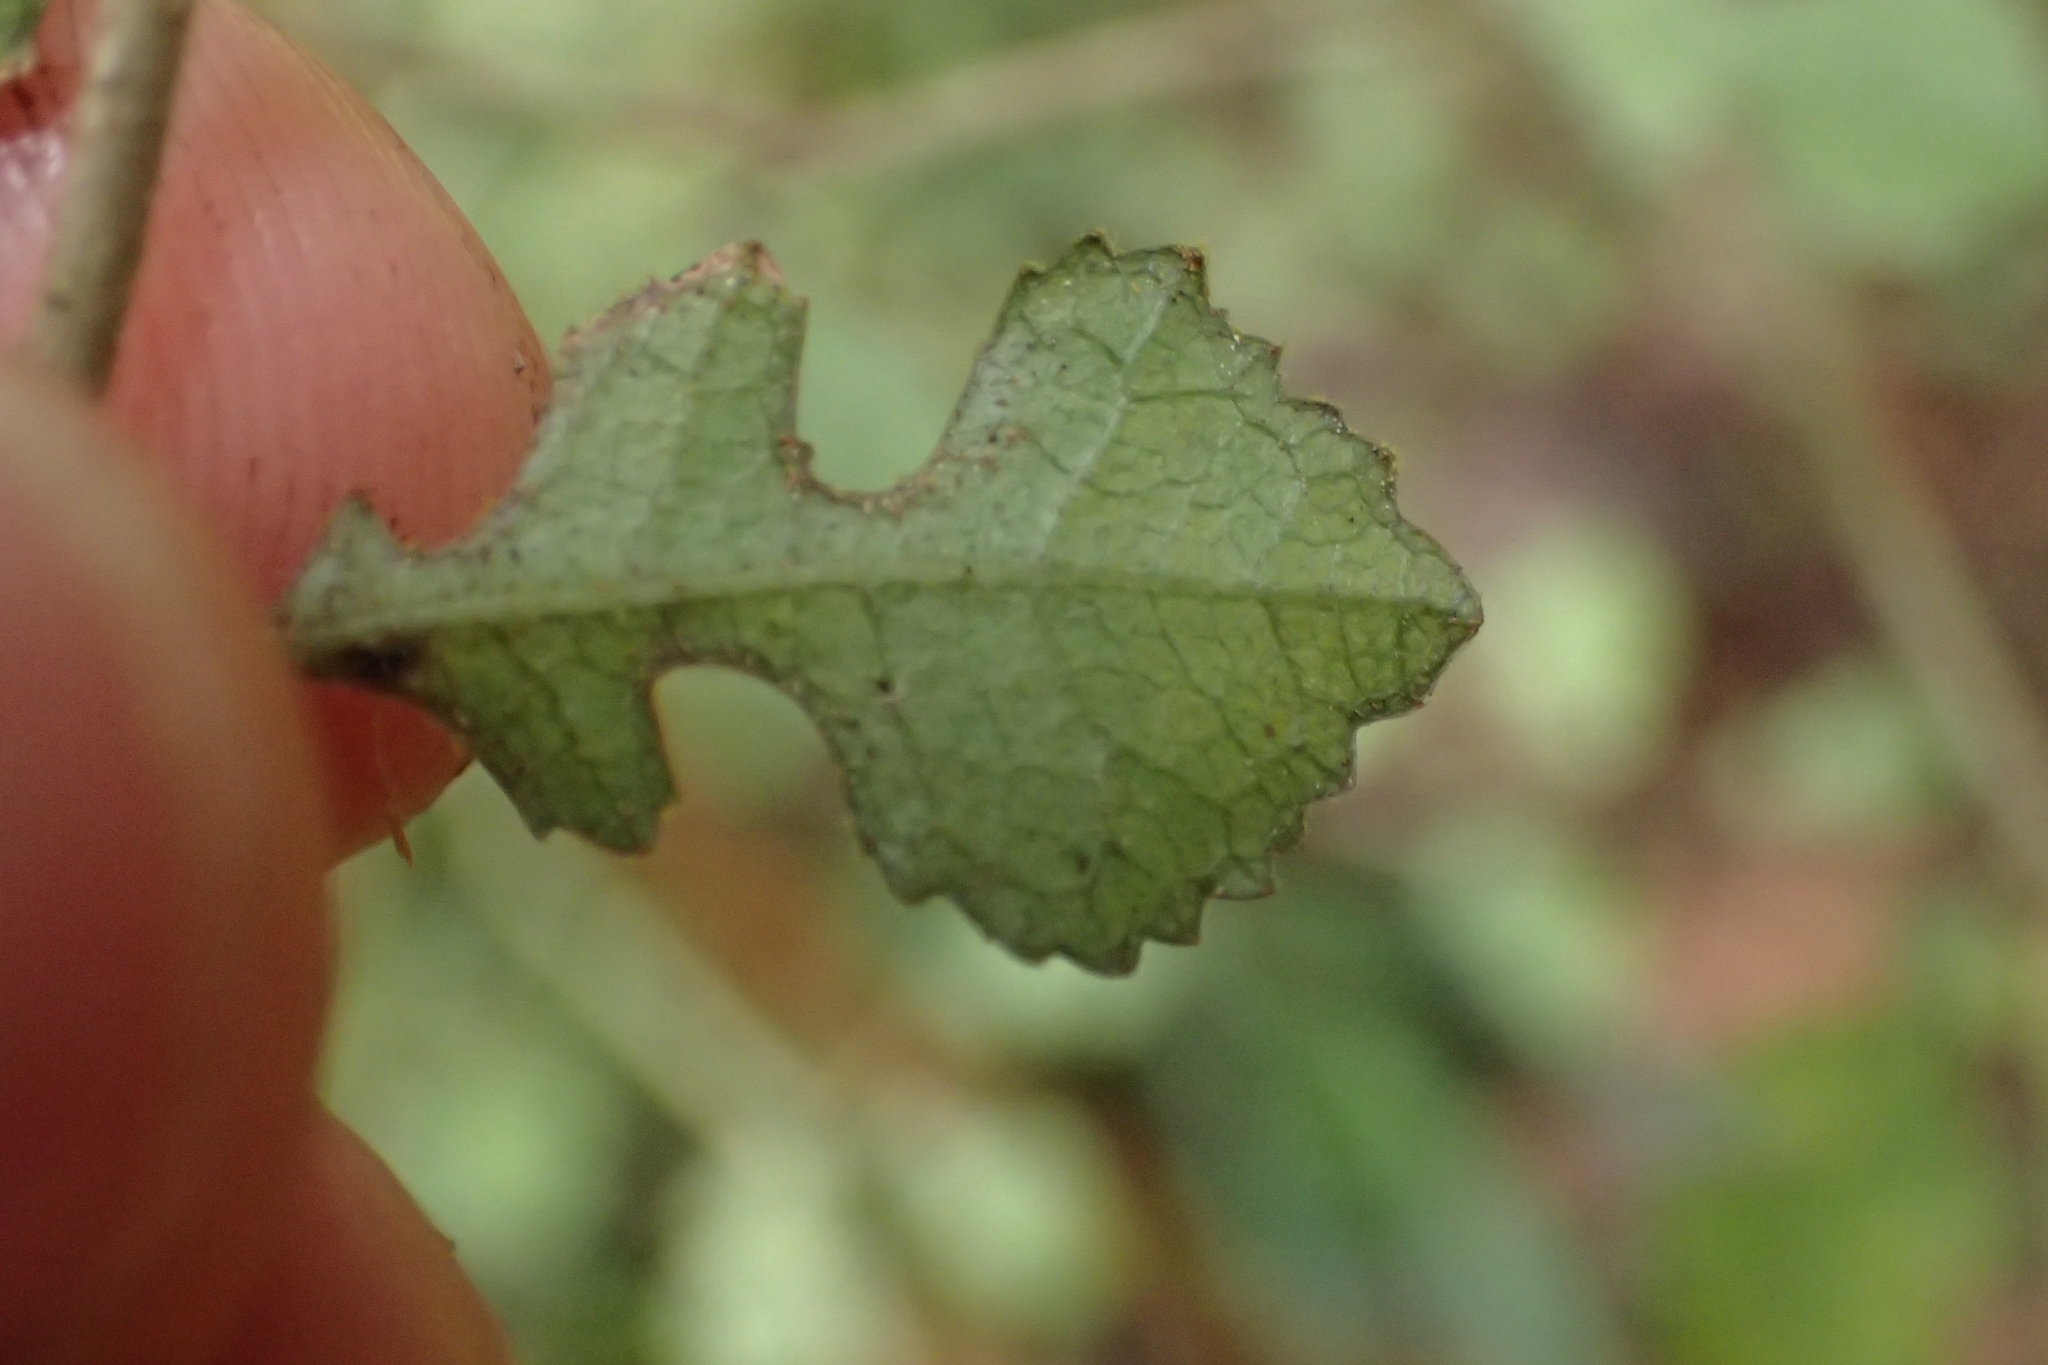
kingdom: Plantae
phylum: Tracheophyta
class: Magnoliopsida
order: Rosales
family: Moraceae
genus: Paratrophis
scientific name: Paratrophis microphylla
